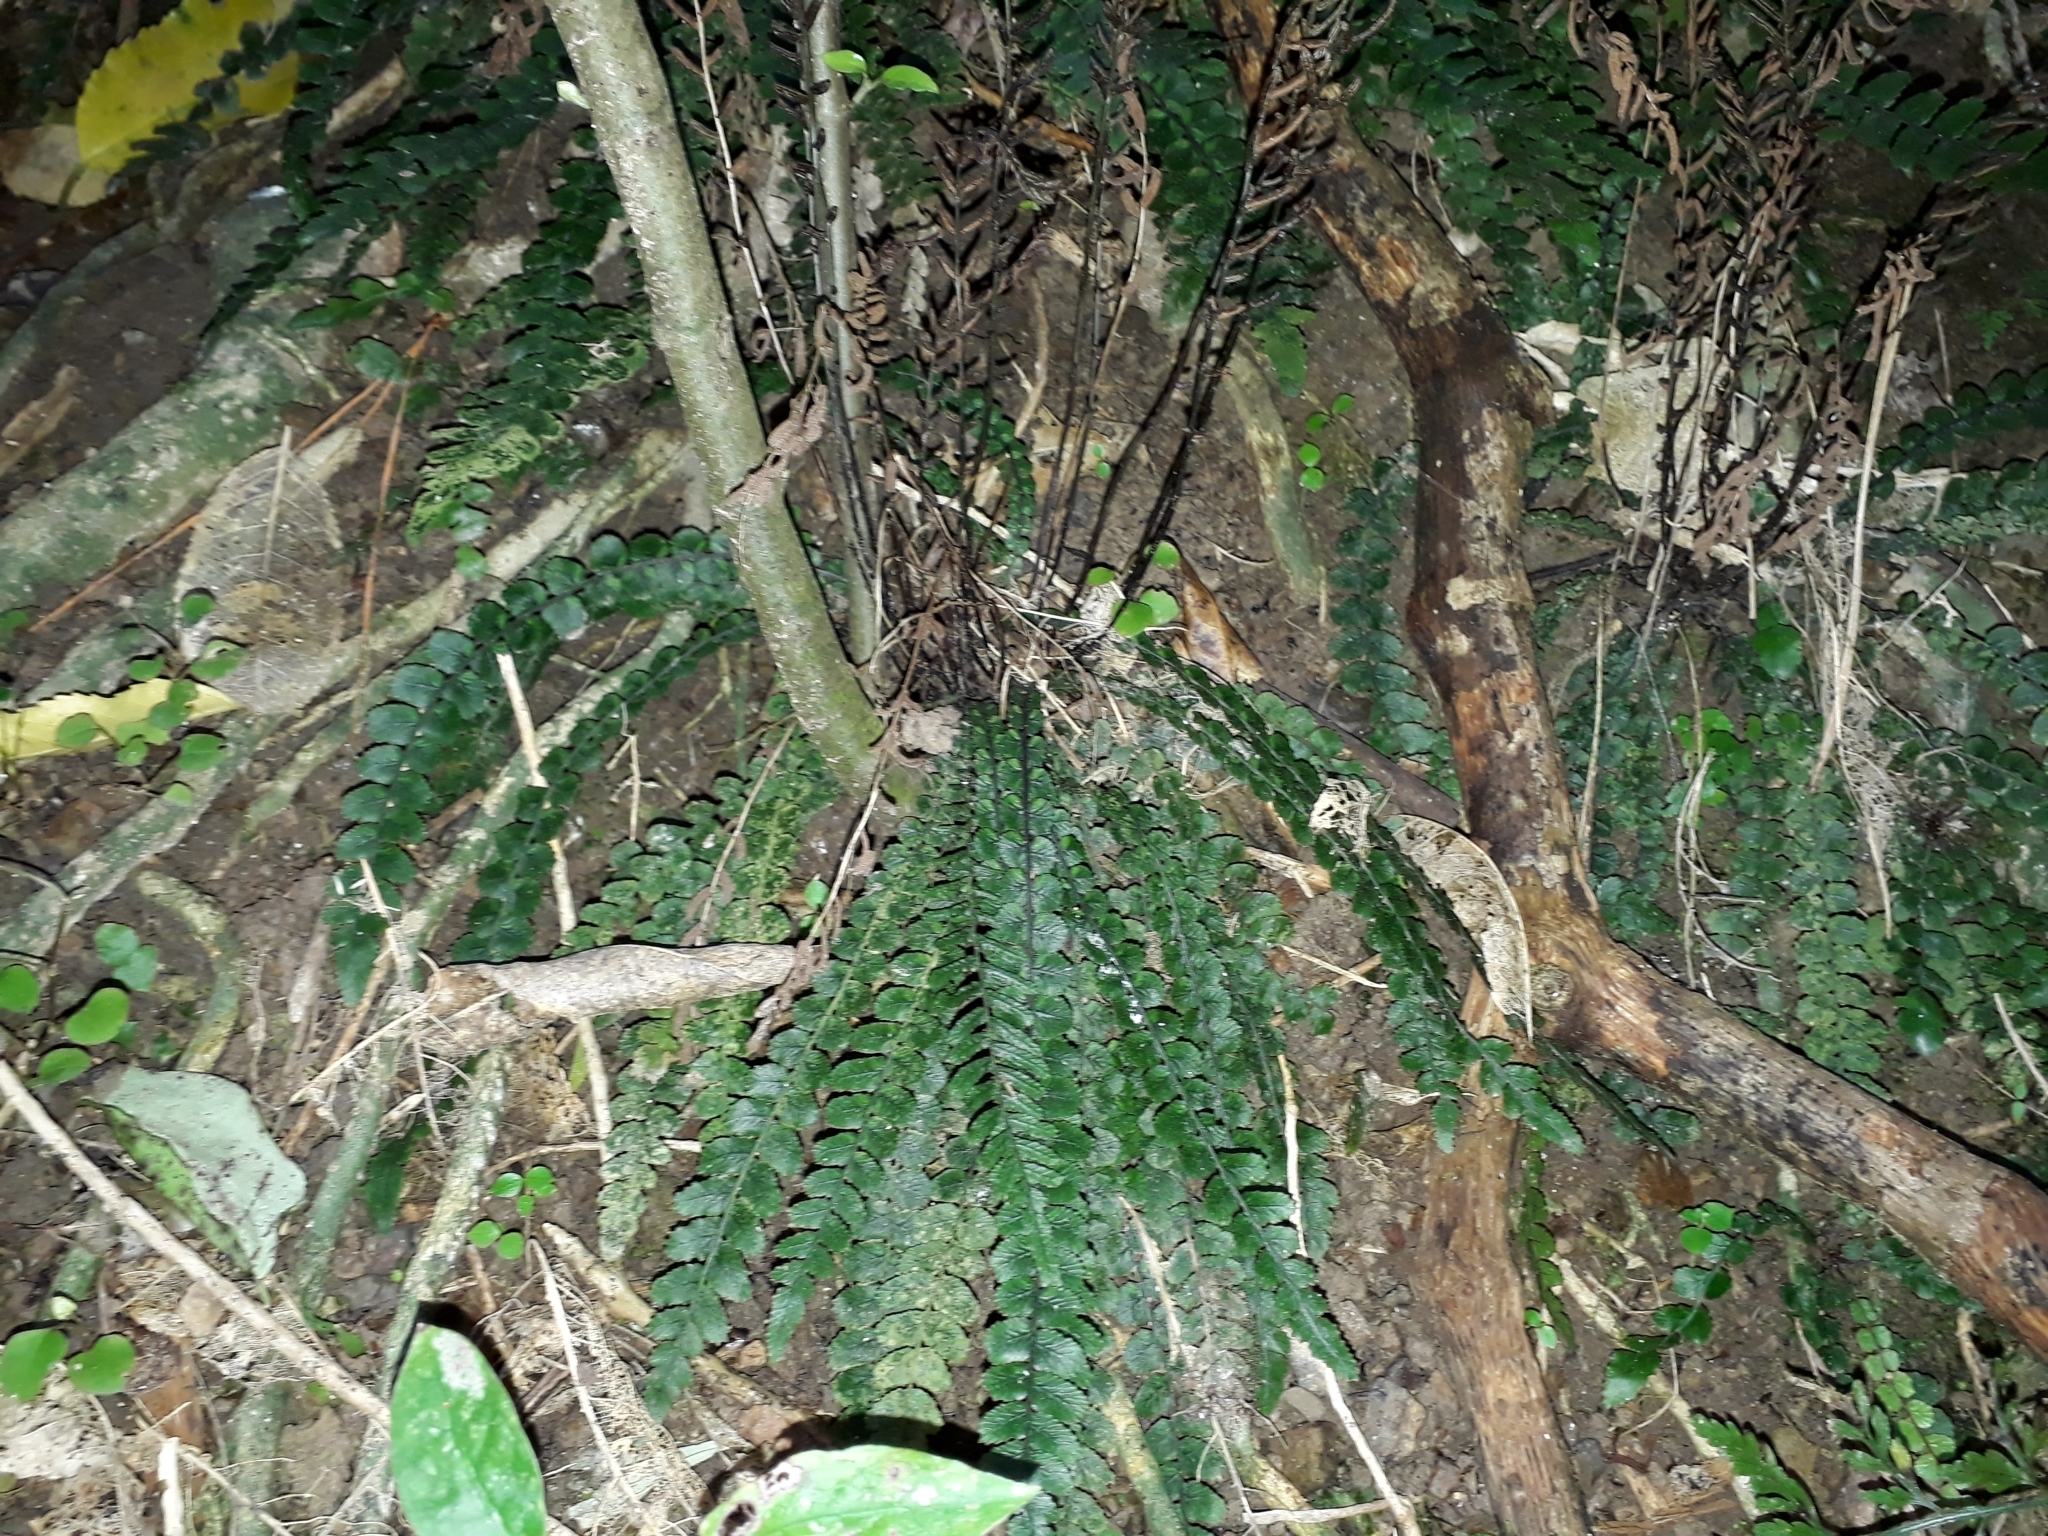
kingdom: Plantae
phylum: Tracheophyta
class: Polypodiopsida
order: Polypodiales
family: Blechnaceae
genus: Austroblechnum
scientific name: Austroblechnum membranaceum
